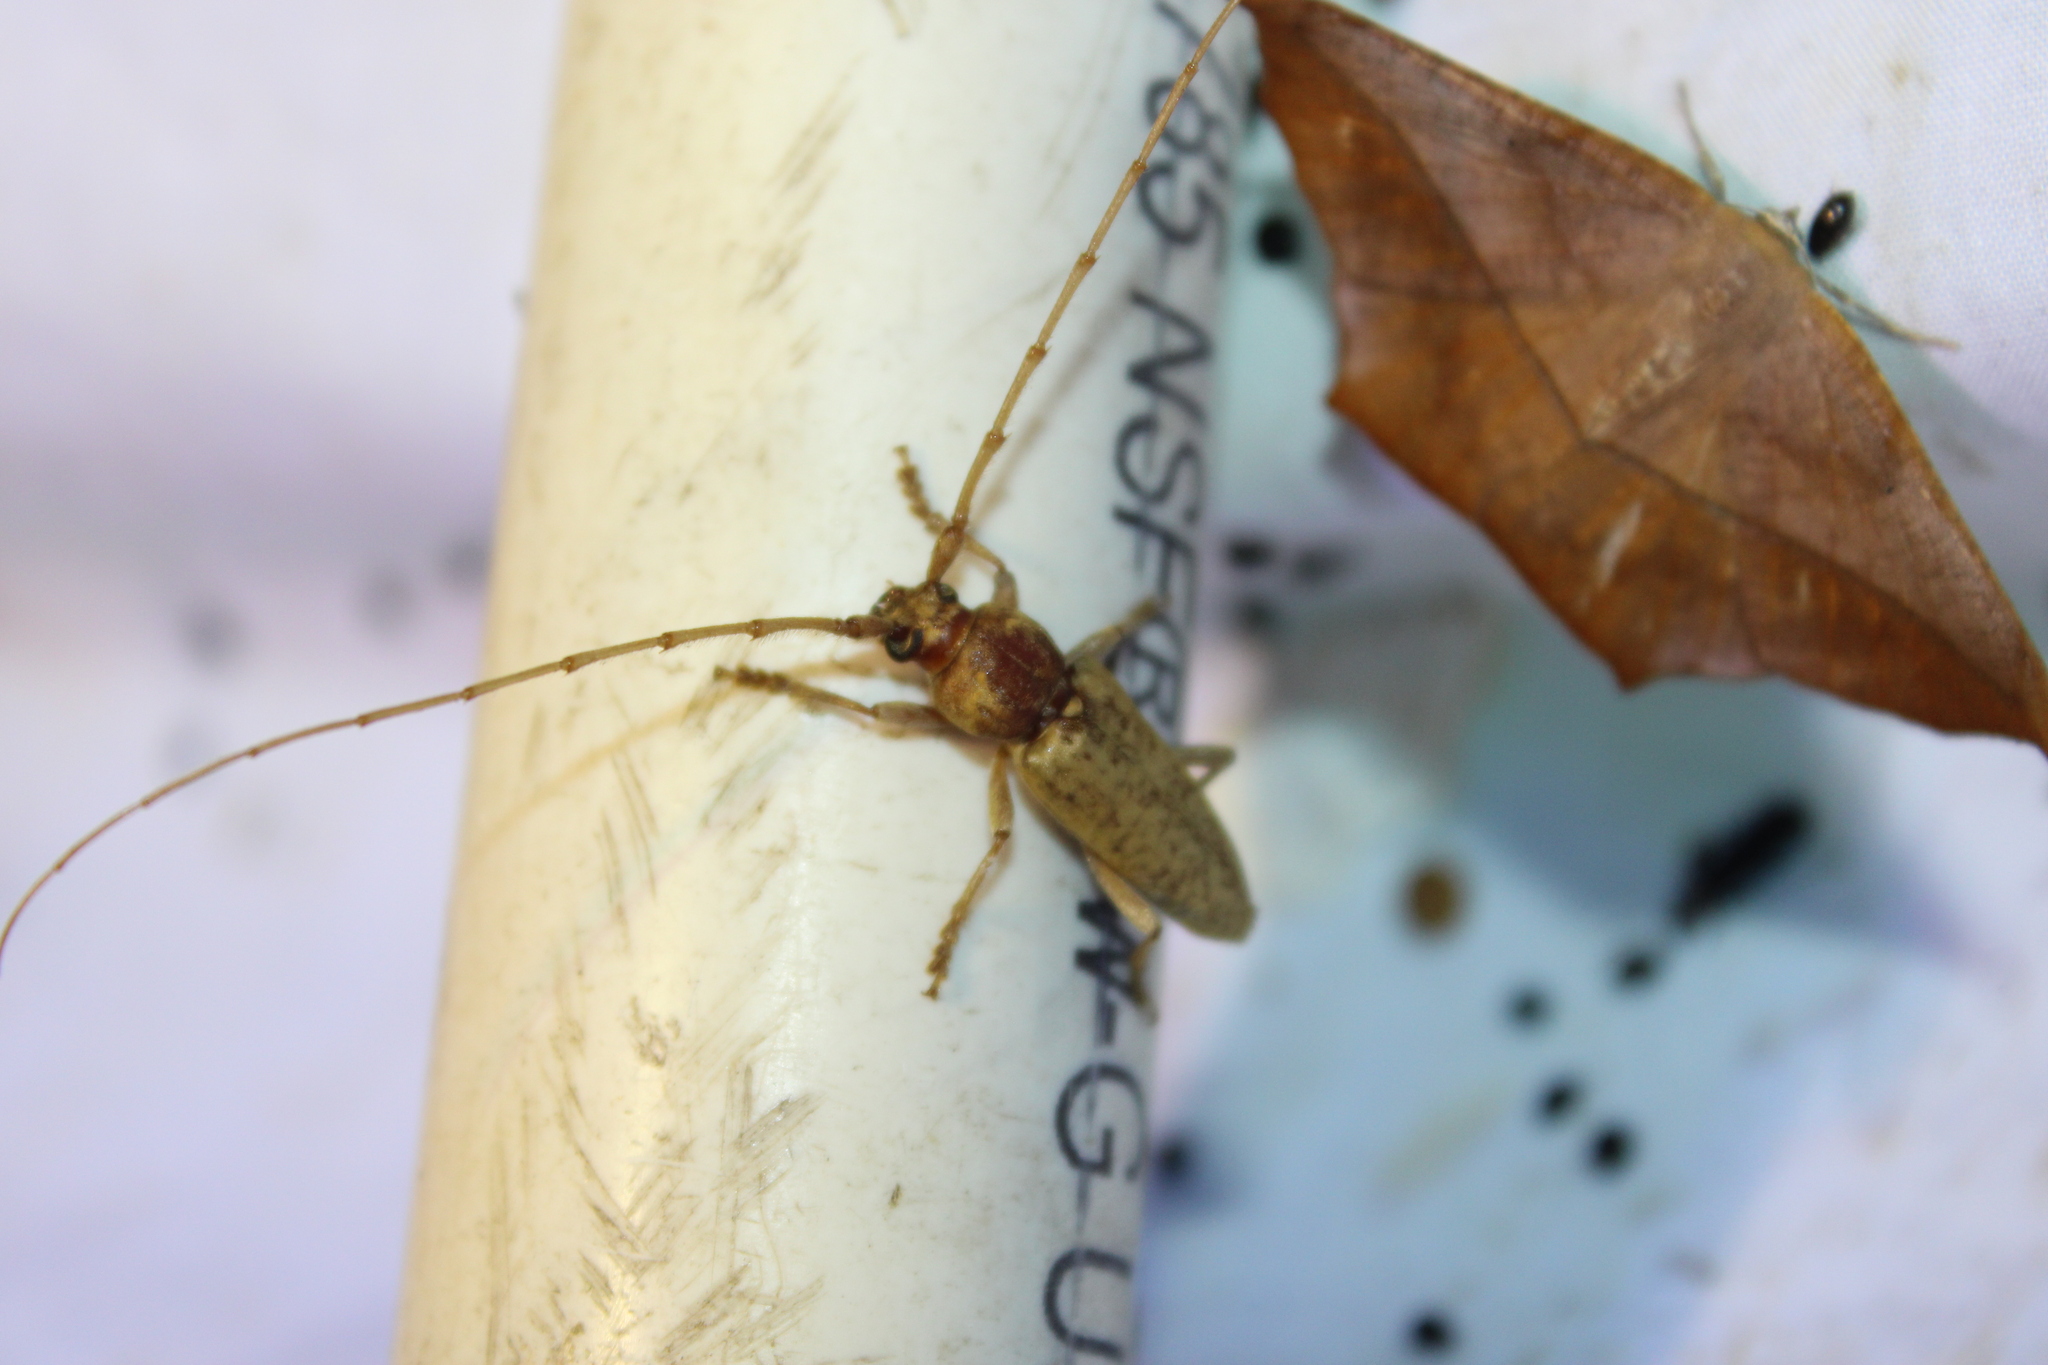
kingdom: Animalia
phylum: Arthropoda
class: Insecta
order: Coleoptera
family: Cerambycidae
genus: Enaphalodes
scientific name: Enaphalodes rufulus
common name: Red oak borer
